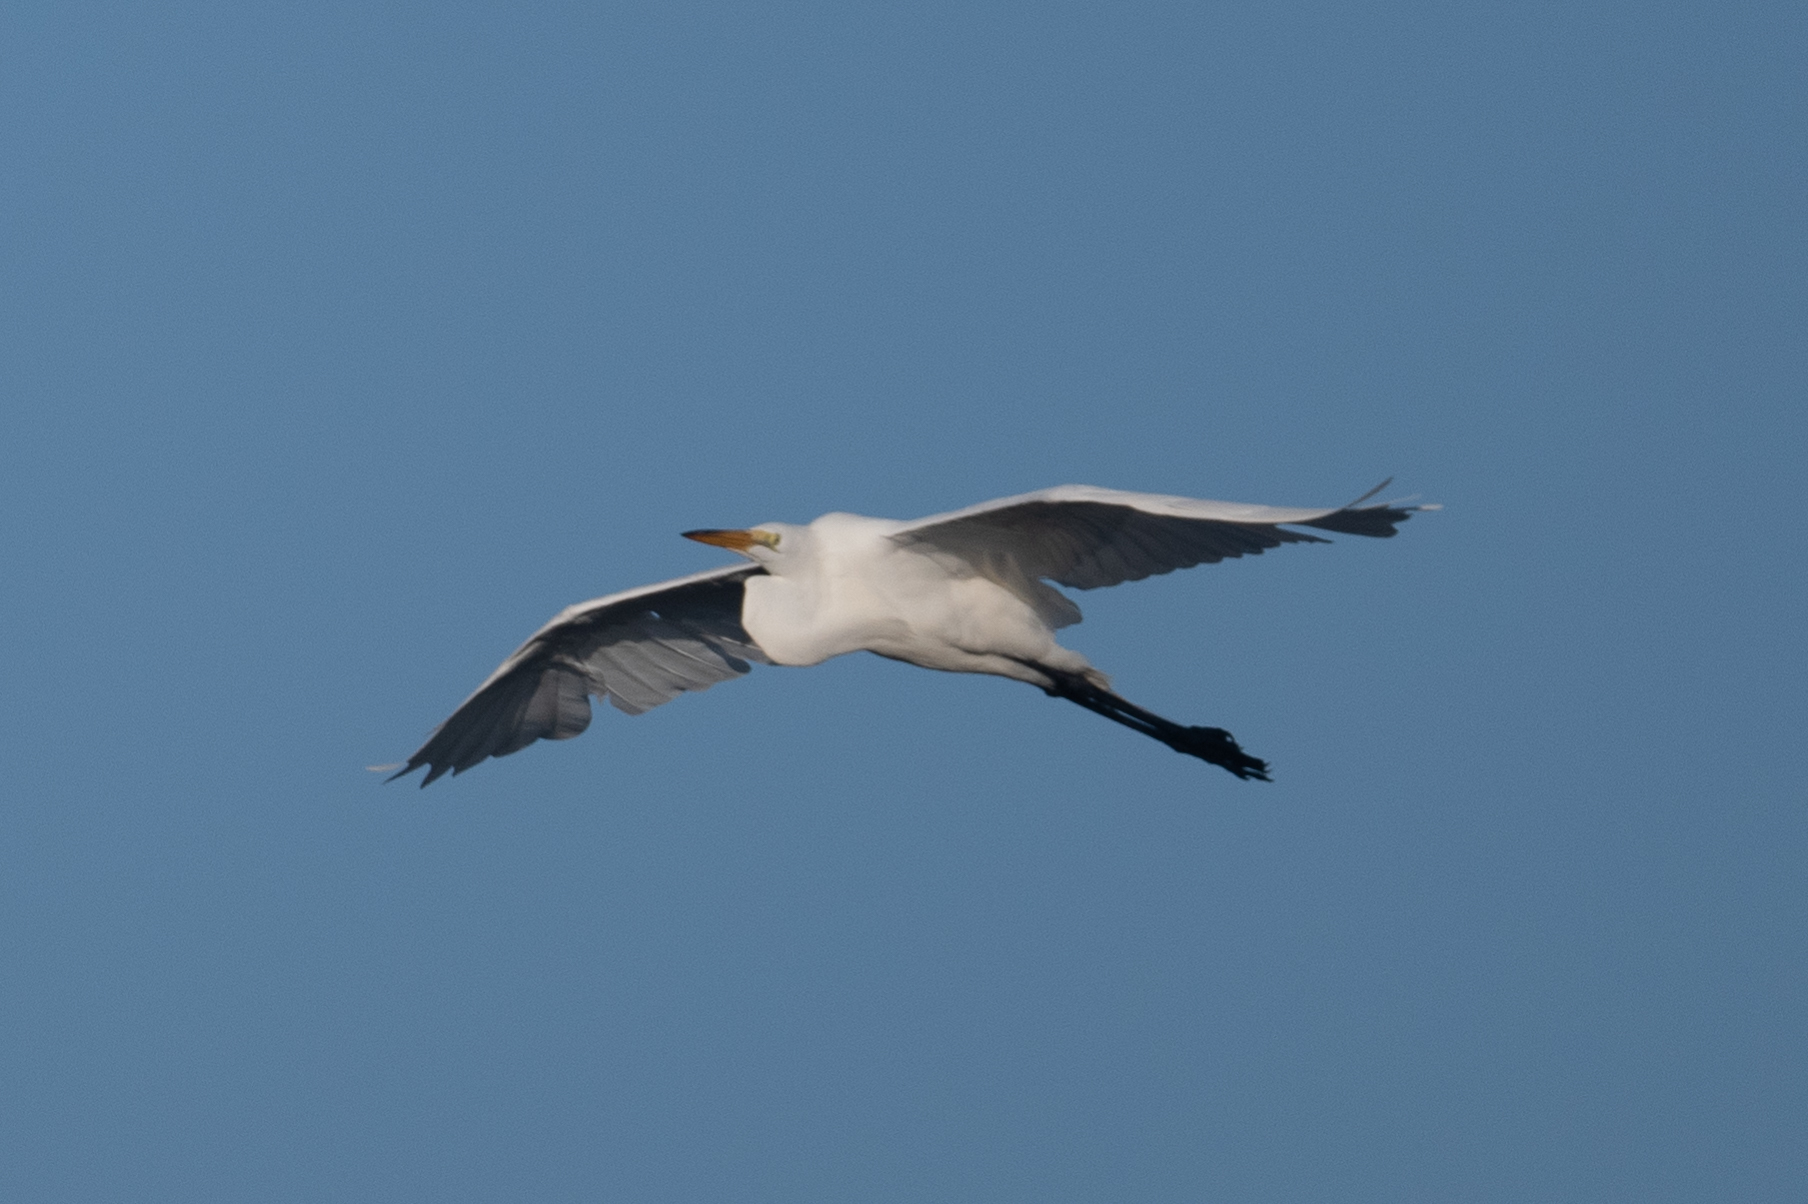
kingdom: Animalia
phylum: Chordata
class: Aves
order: Pelecaniformes
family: Ardeidae
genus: Ardea
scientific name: Ardea alba
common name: Great egret
